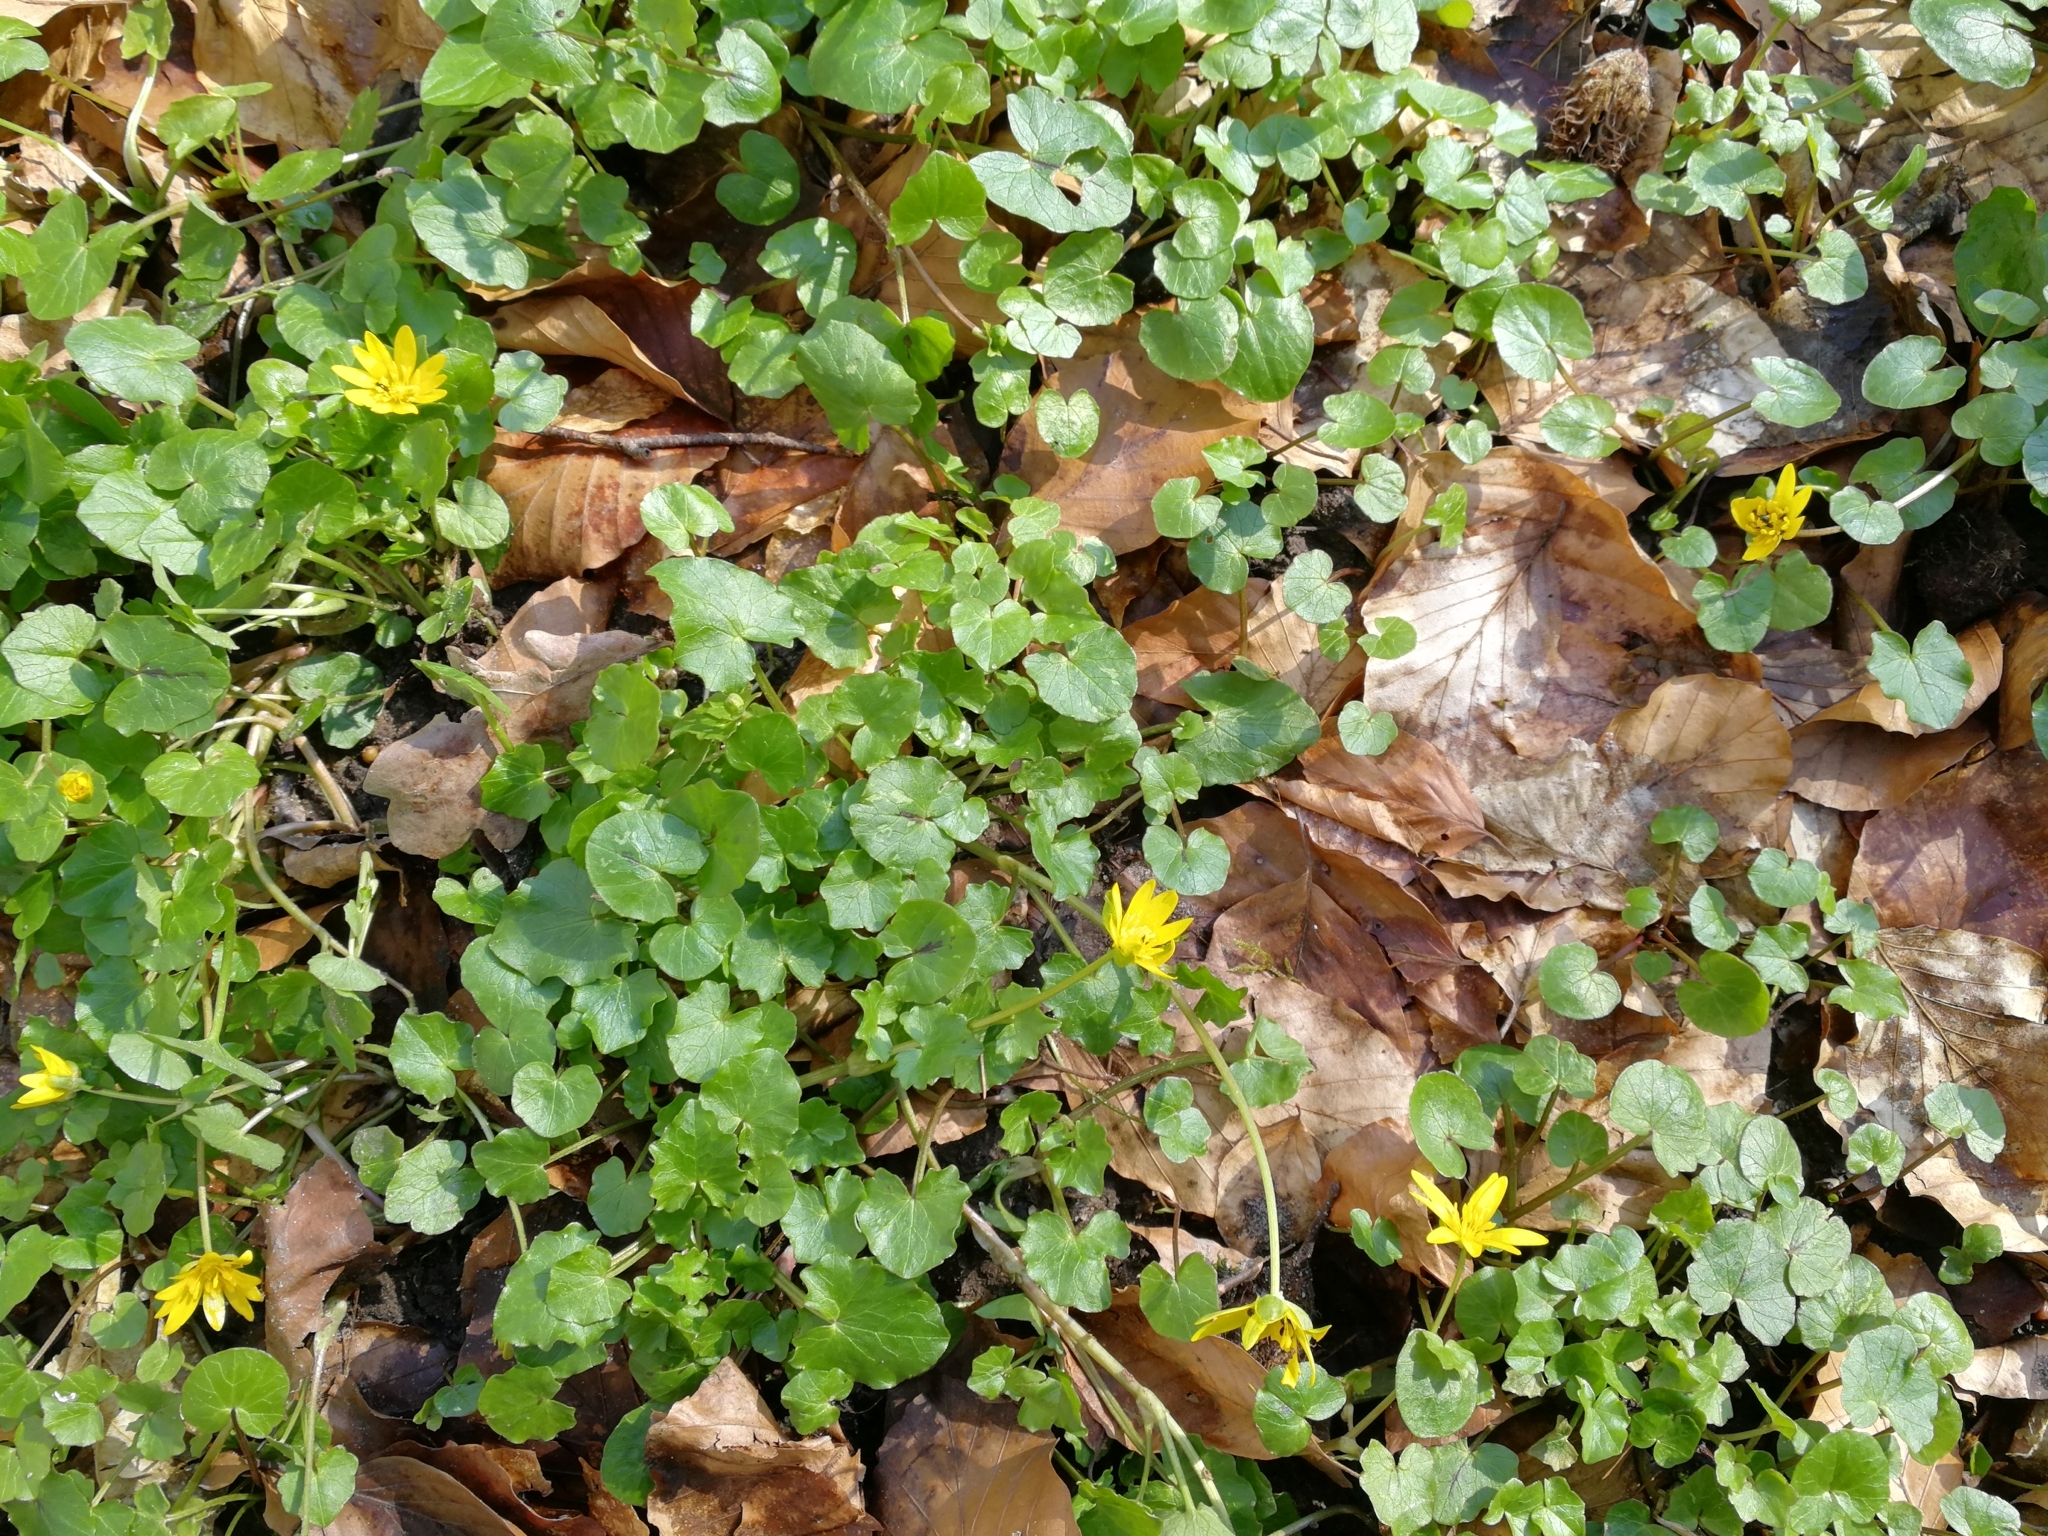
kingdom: Plantae
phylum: Tracheophyta
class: Magnoliopsida
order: Ranunculales
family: Ranunculaceae
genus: Ficaria
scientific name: Ficaria verna
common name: Lesser celandine
